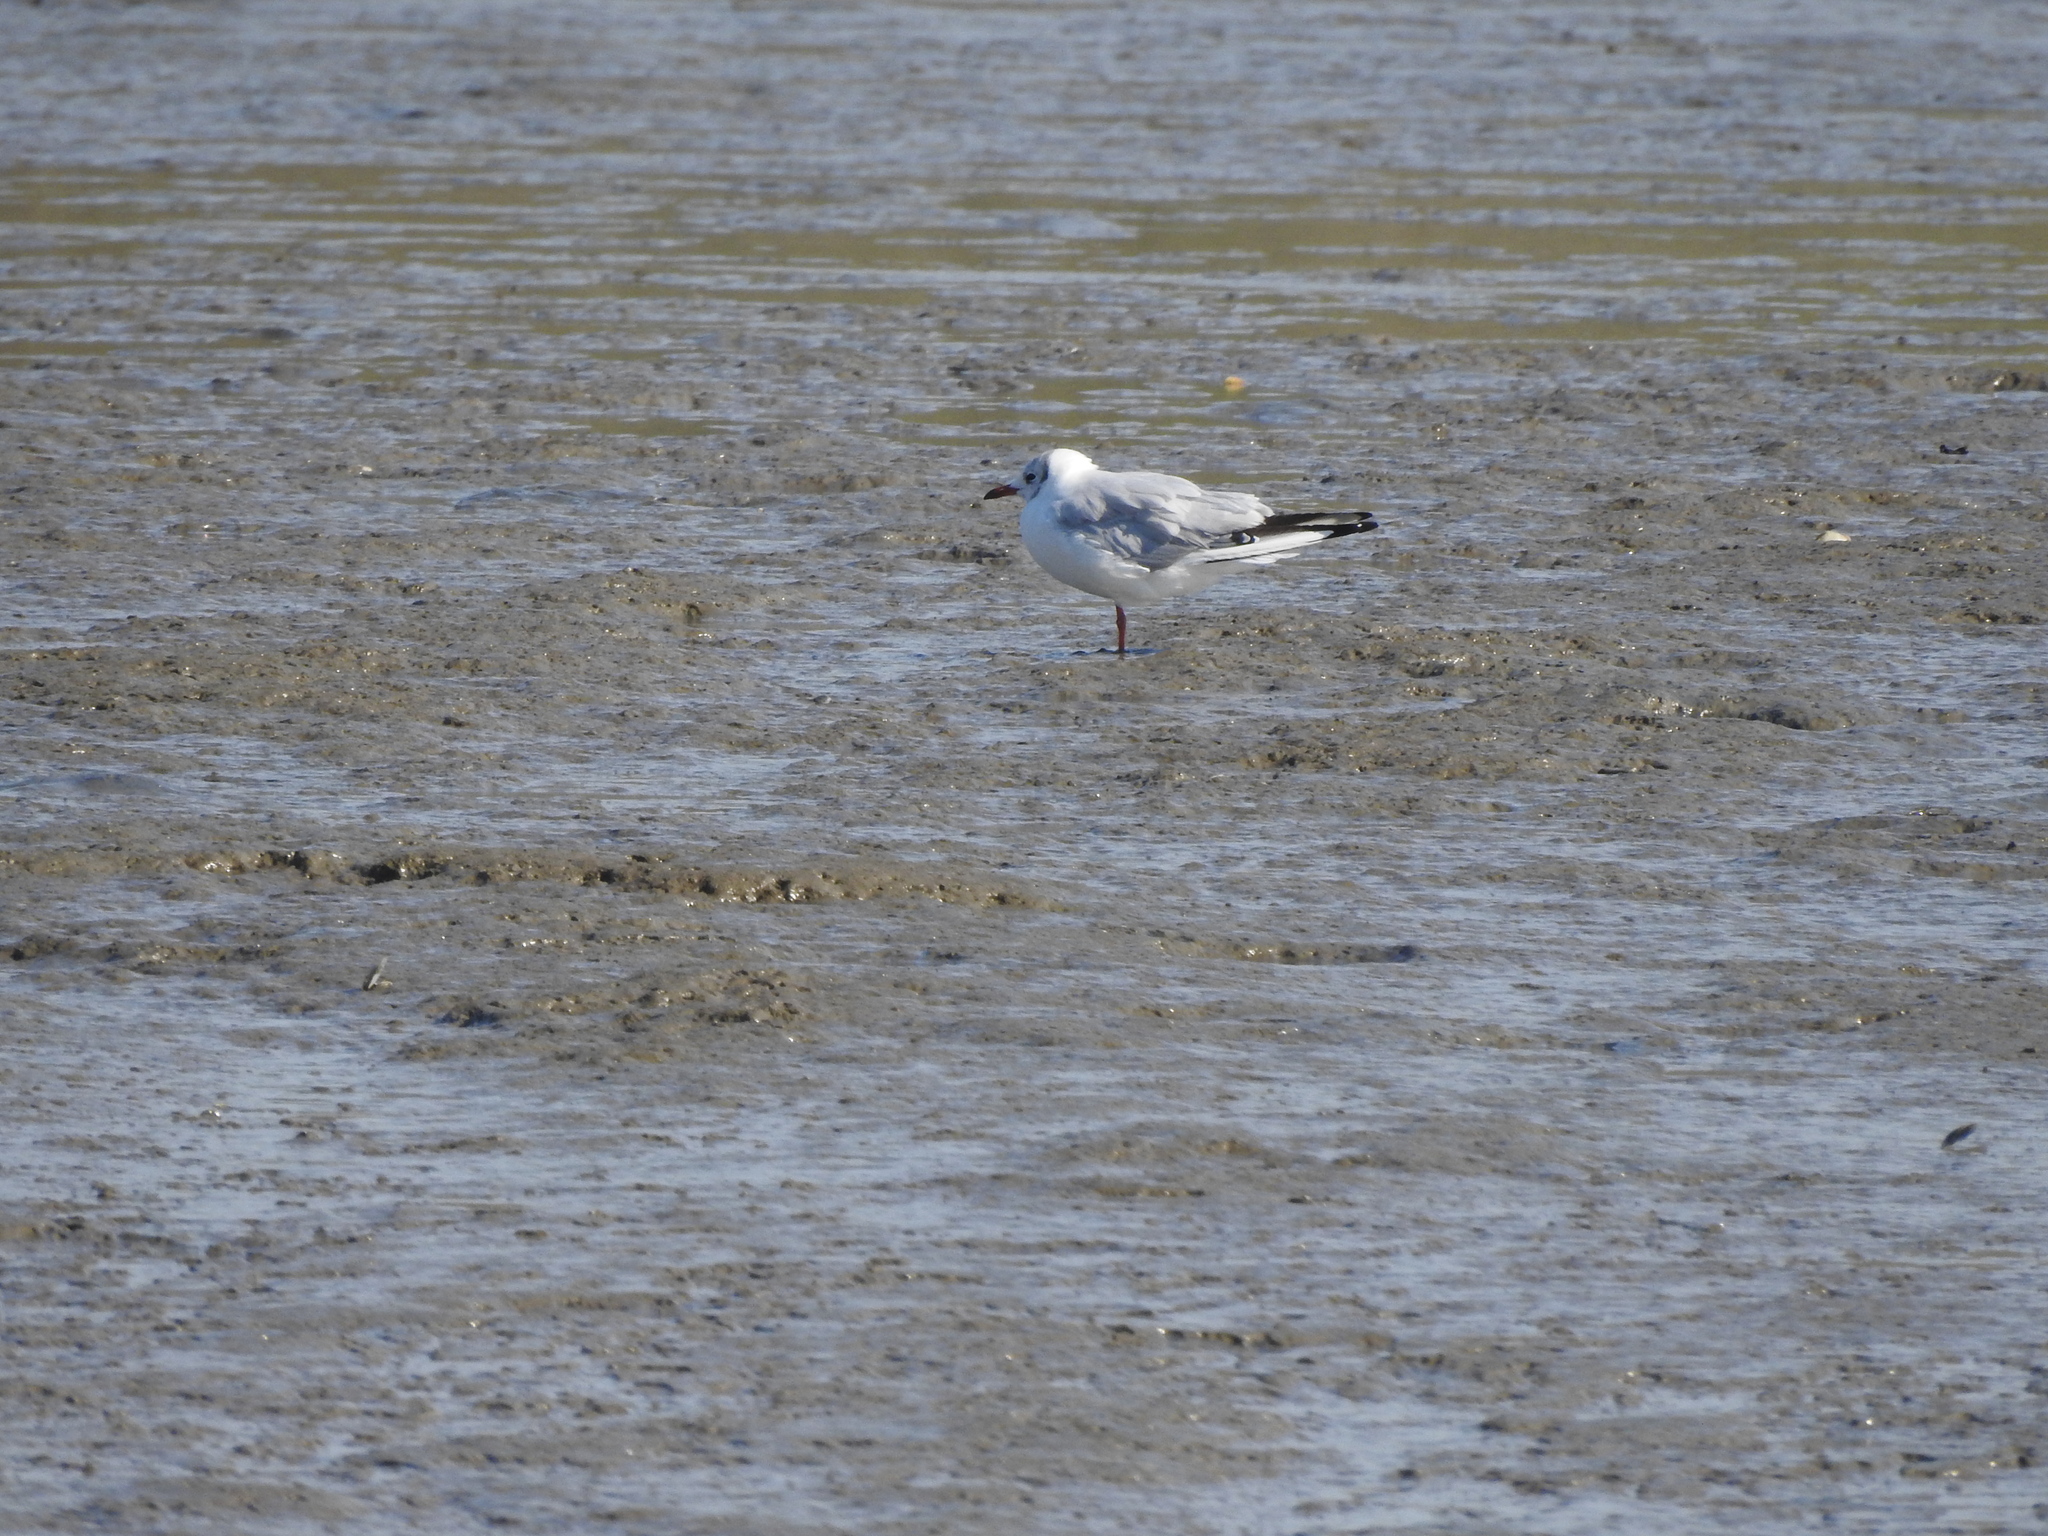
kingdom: Animalia
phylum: Chordata
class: Aves
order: Charadriiformes
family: Laridae
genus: Chroicocephalus
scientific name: Chroicocephalus ridibundus
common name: Black-headed gull
